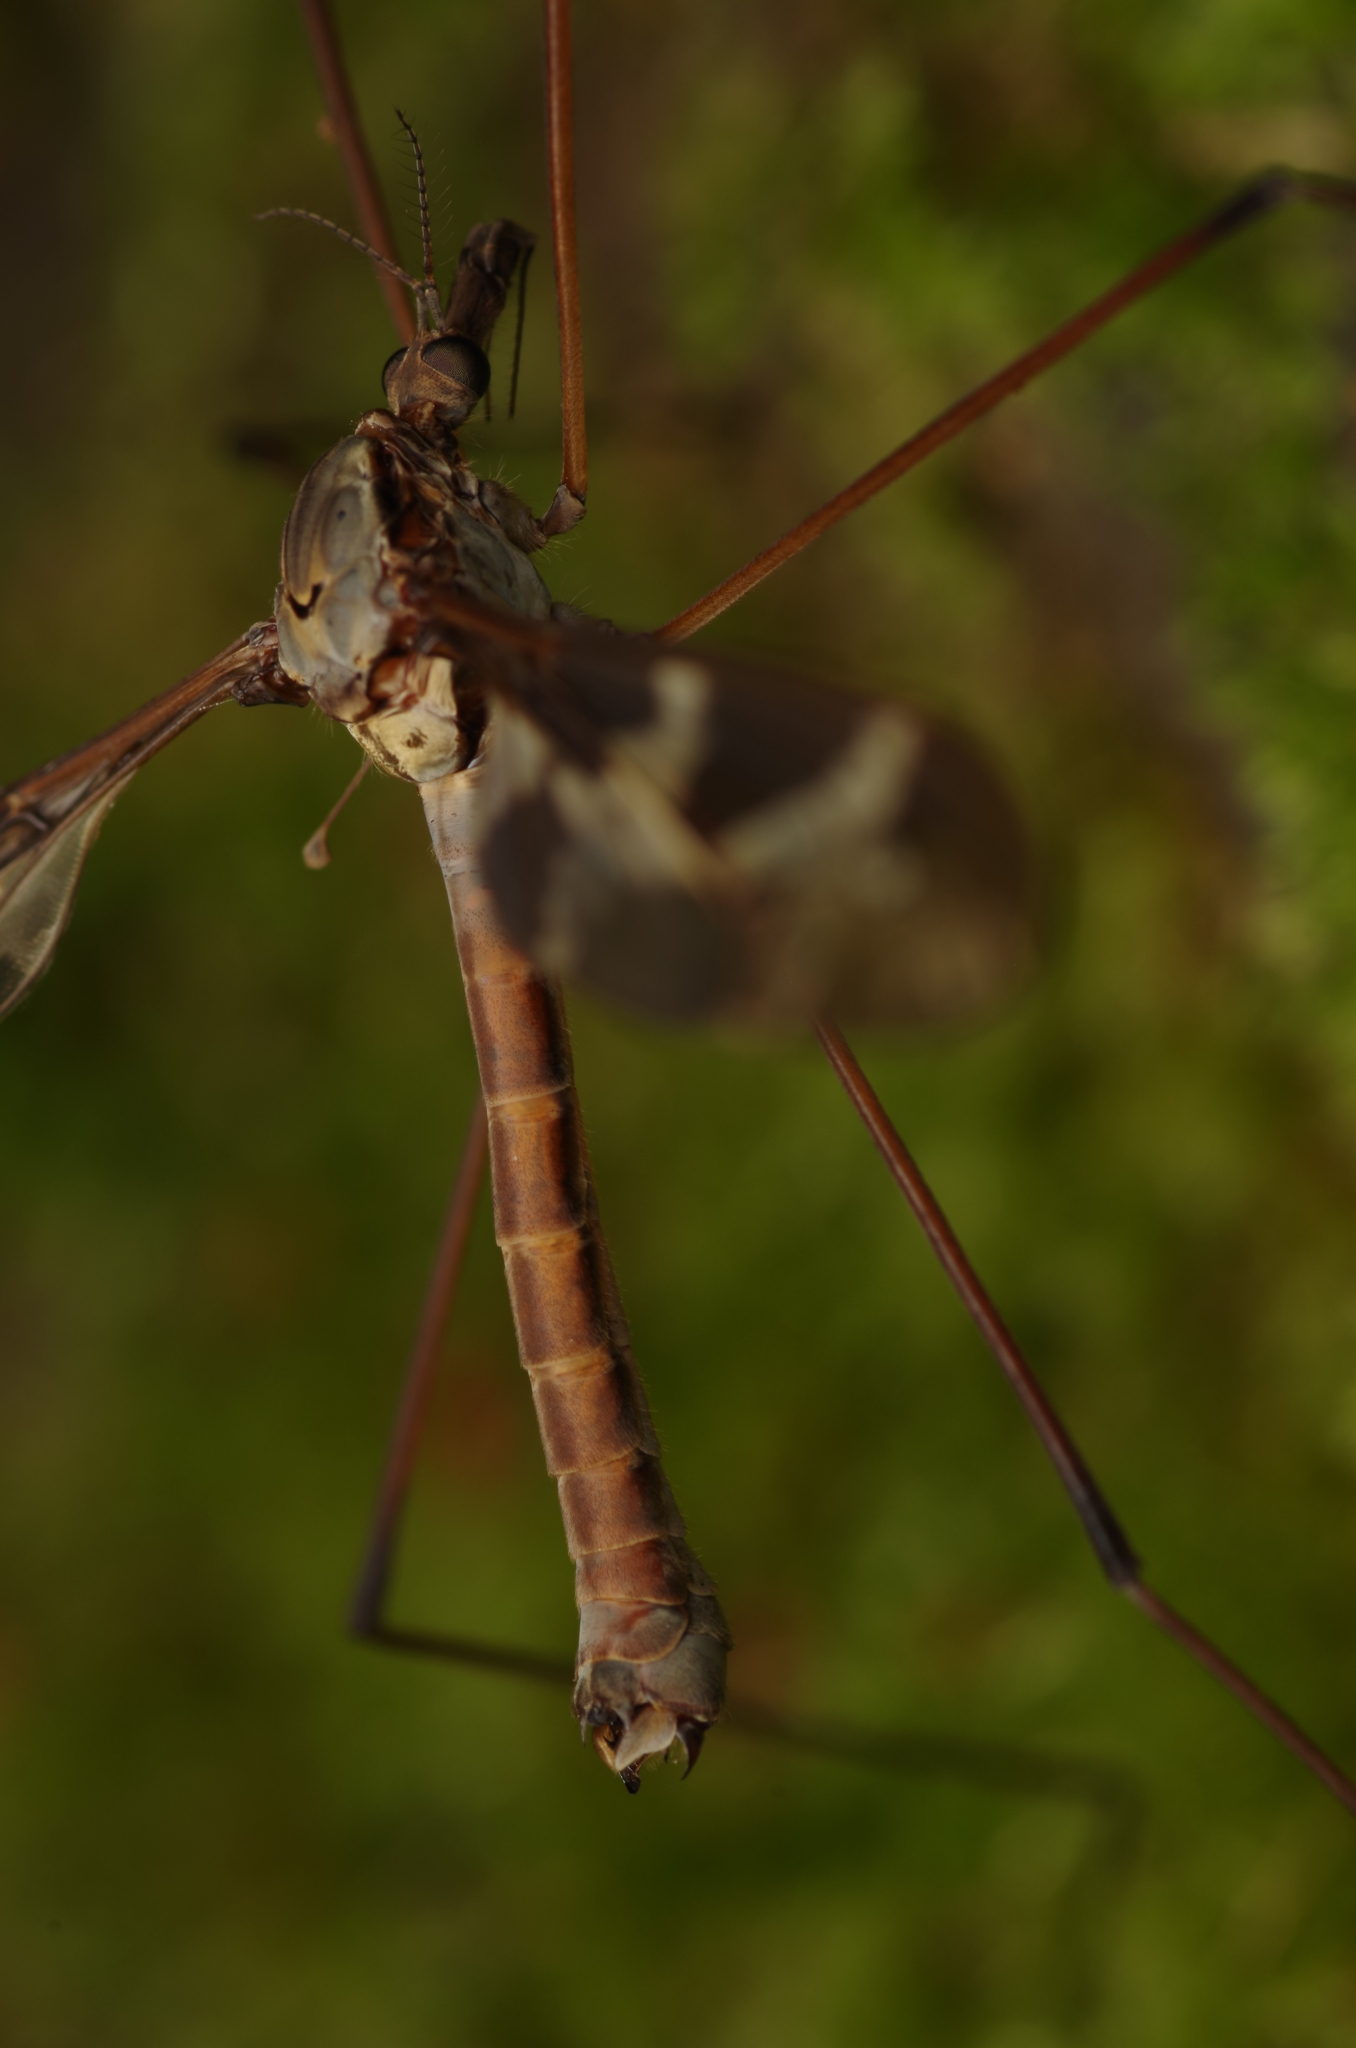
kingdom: Animalia
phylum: Arthropoda
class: Insecta
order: Diptera
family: Tipulidae
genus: Tipula
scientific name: Tipula maxima
